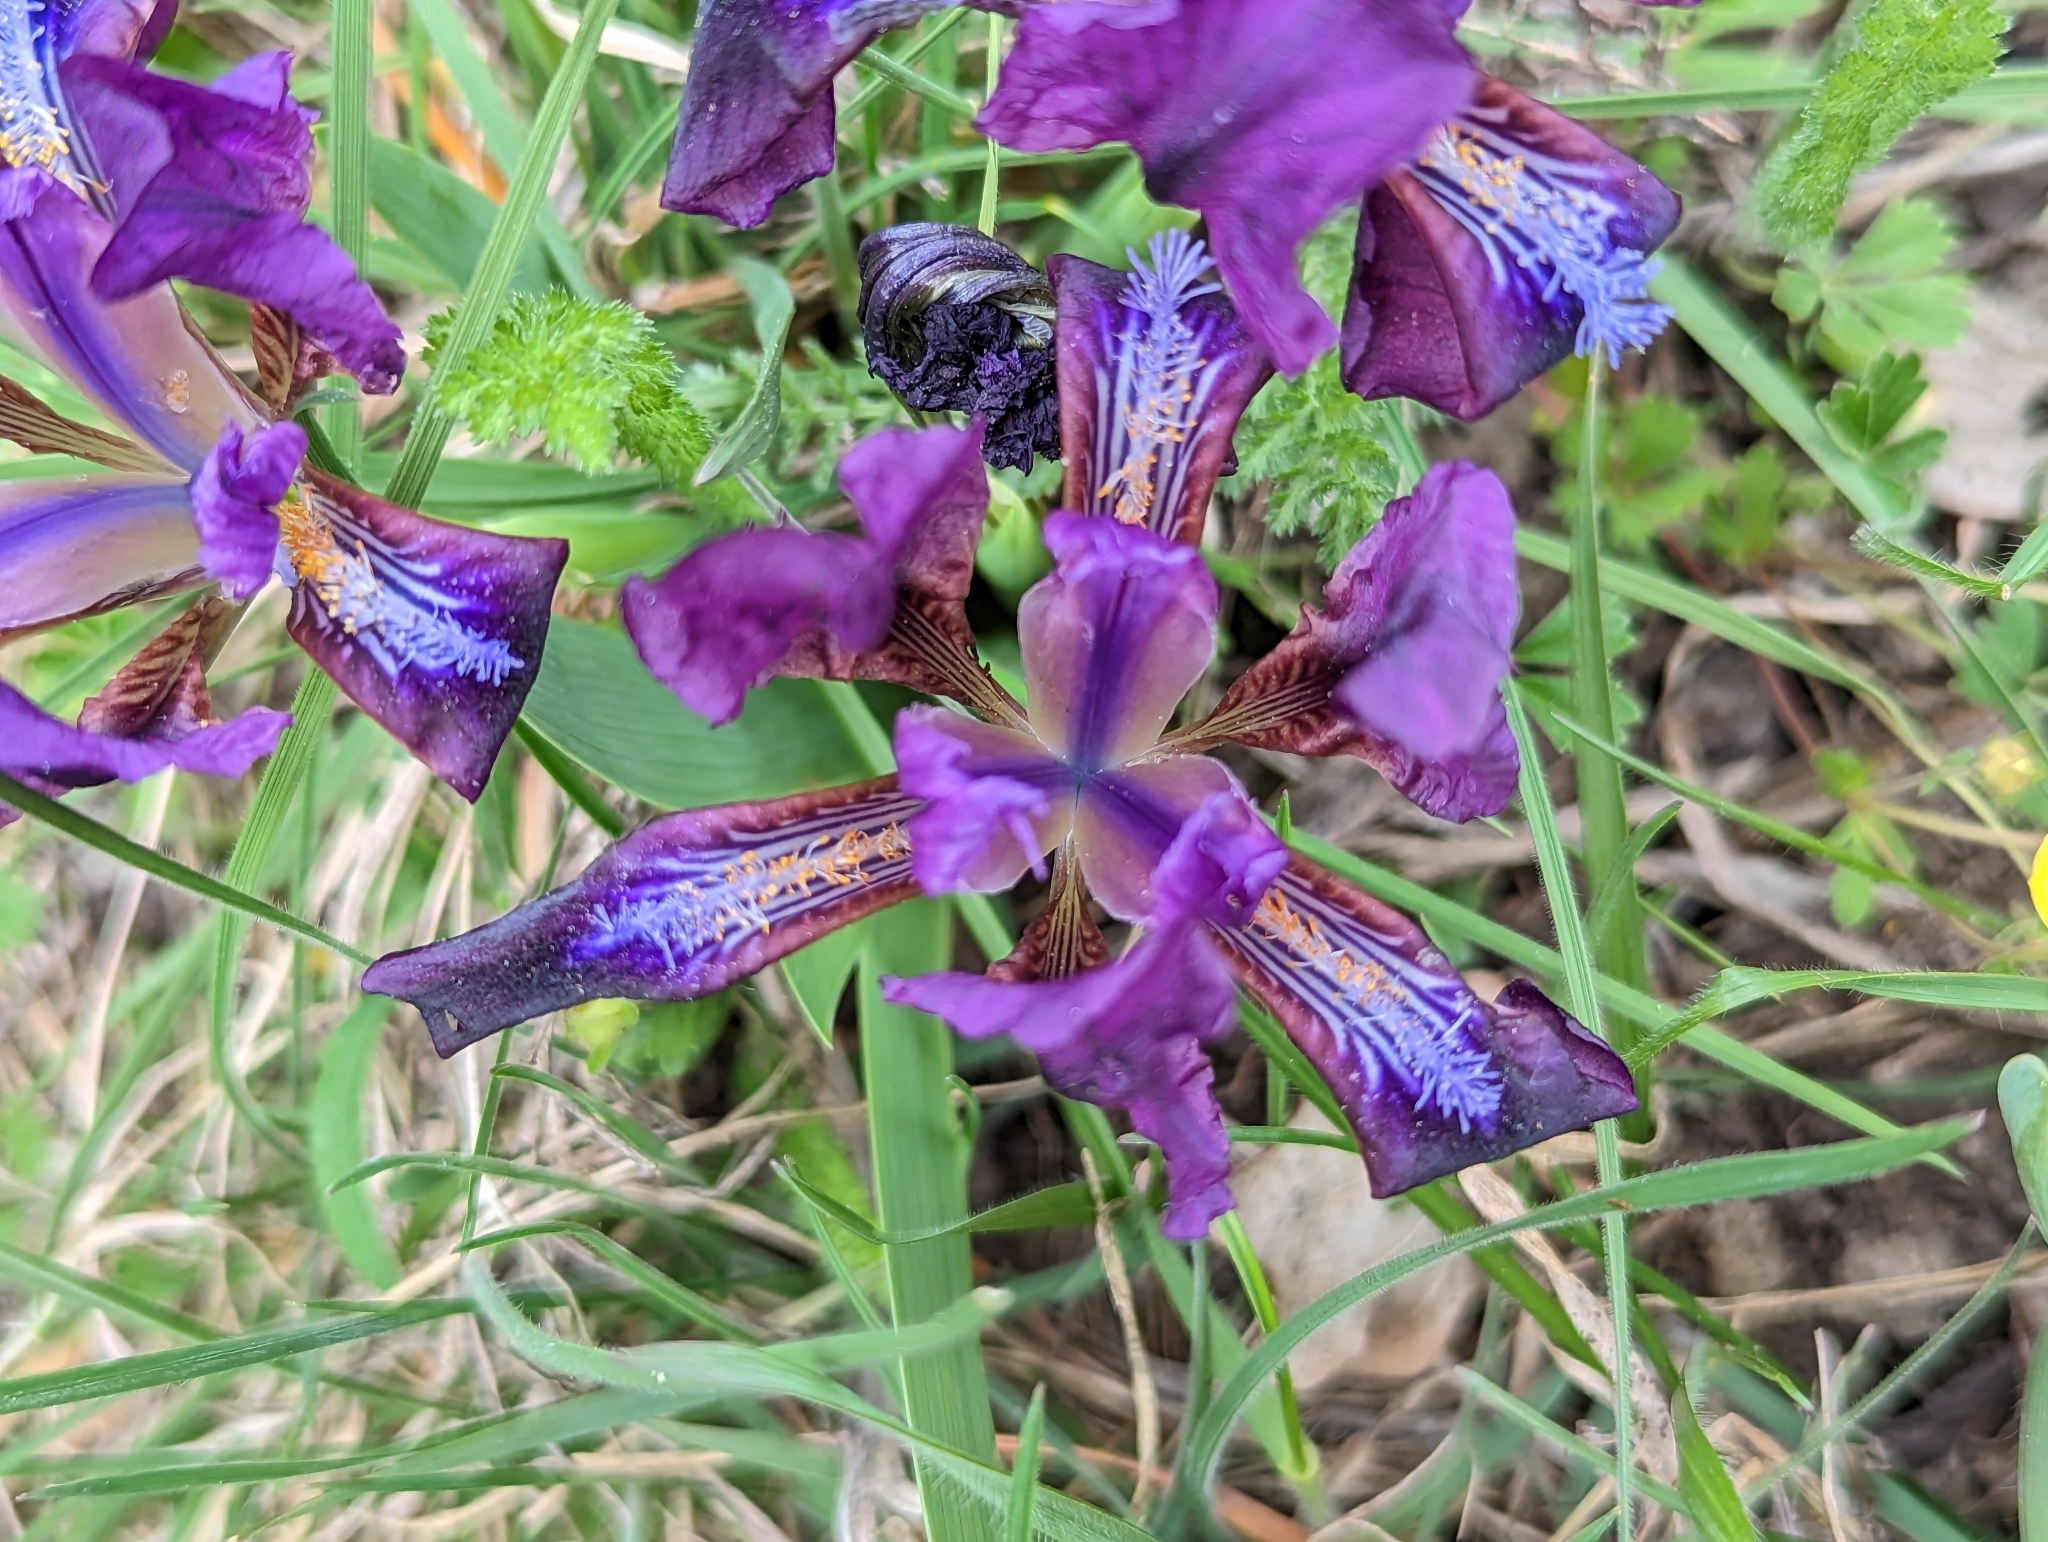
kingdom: Plantae
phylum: Tracheophyta
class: Liliopsida
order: Asparagales
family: Iridaceae
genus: Iris
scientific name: Iris pumila
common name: Dwarf iris
